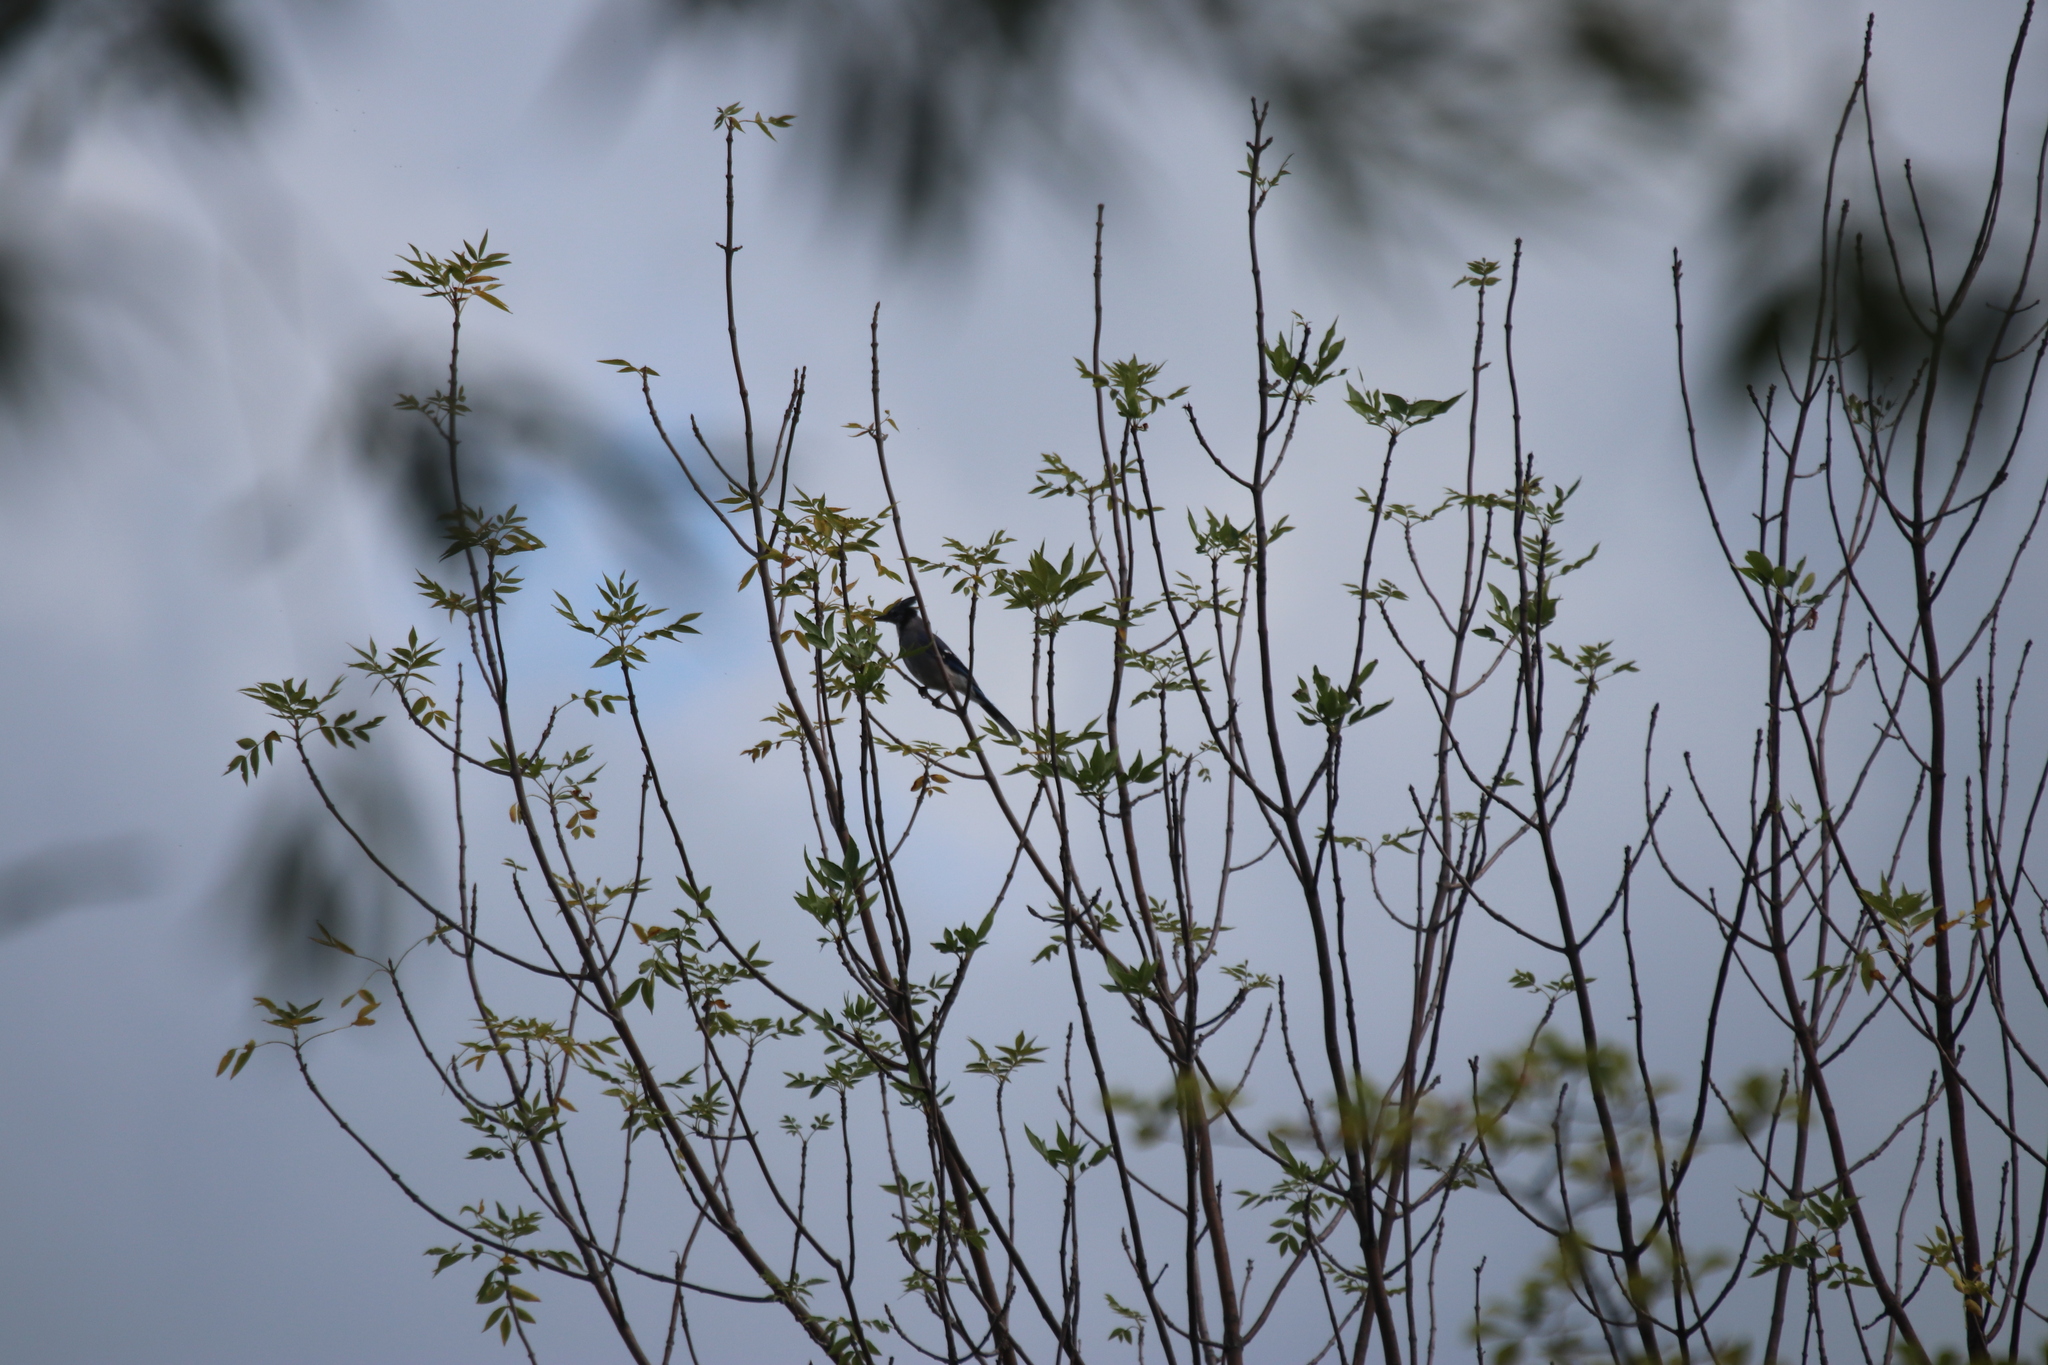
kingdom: Animalia
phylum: Chordata
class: Aves
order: Passeriformes
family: Corvidae
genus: Cyanocitta
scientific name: Cyanocitta cristata
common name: Blue jay
